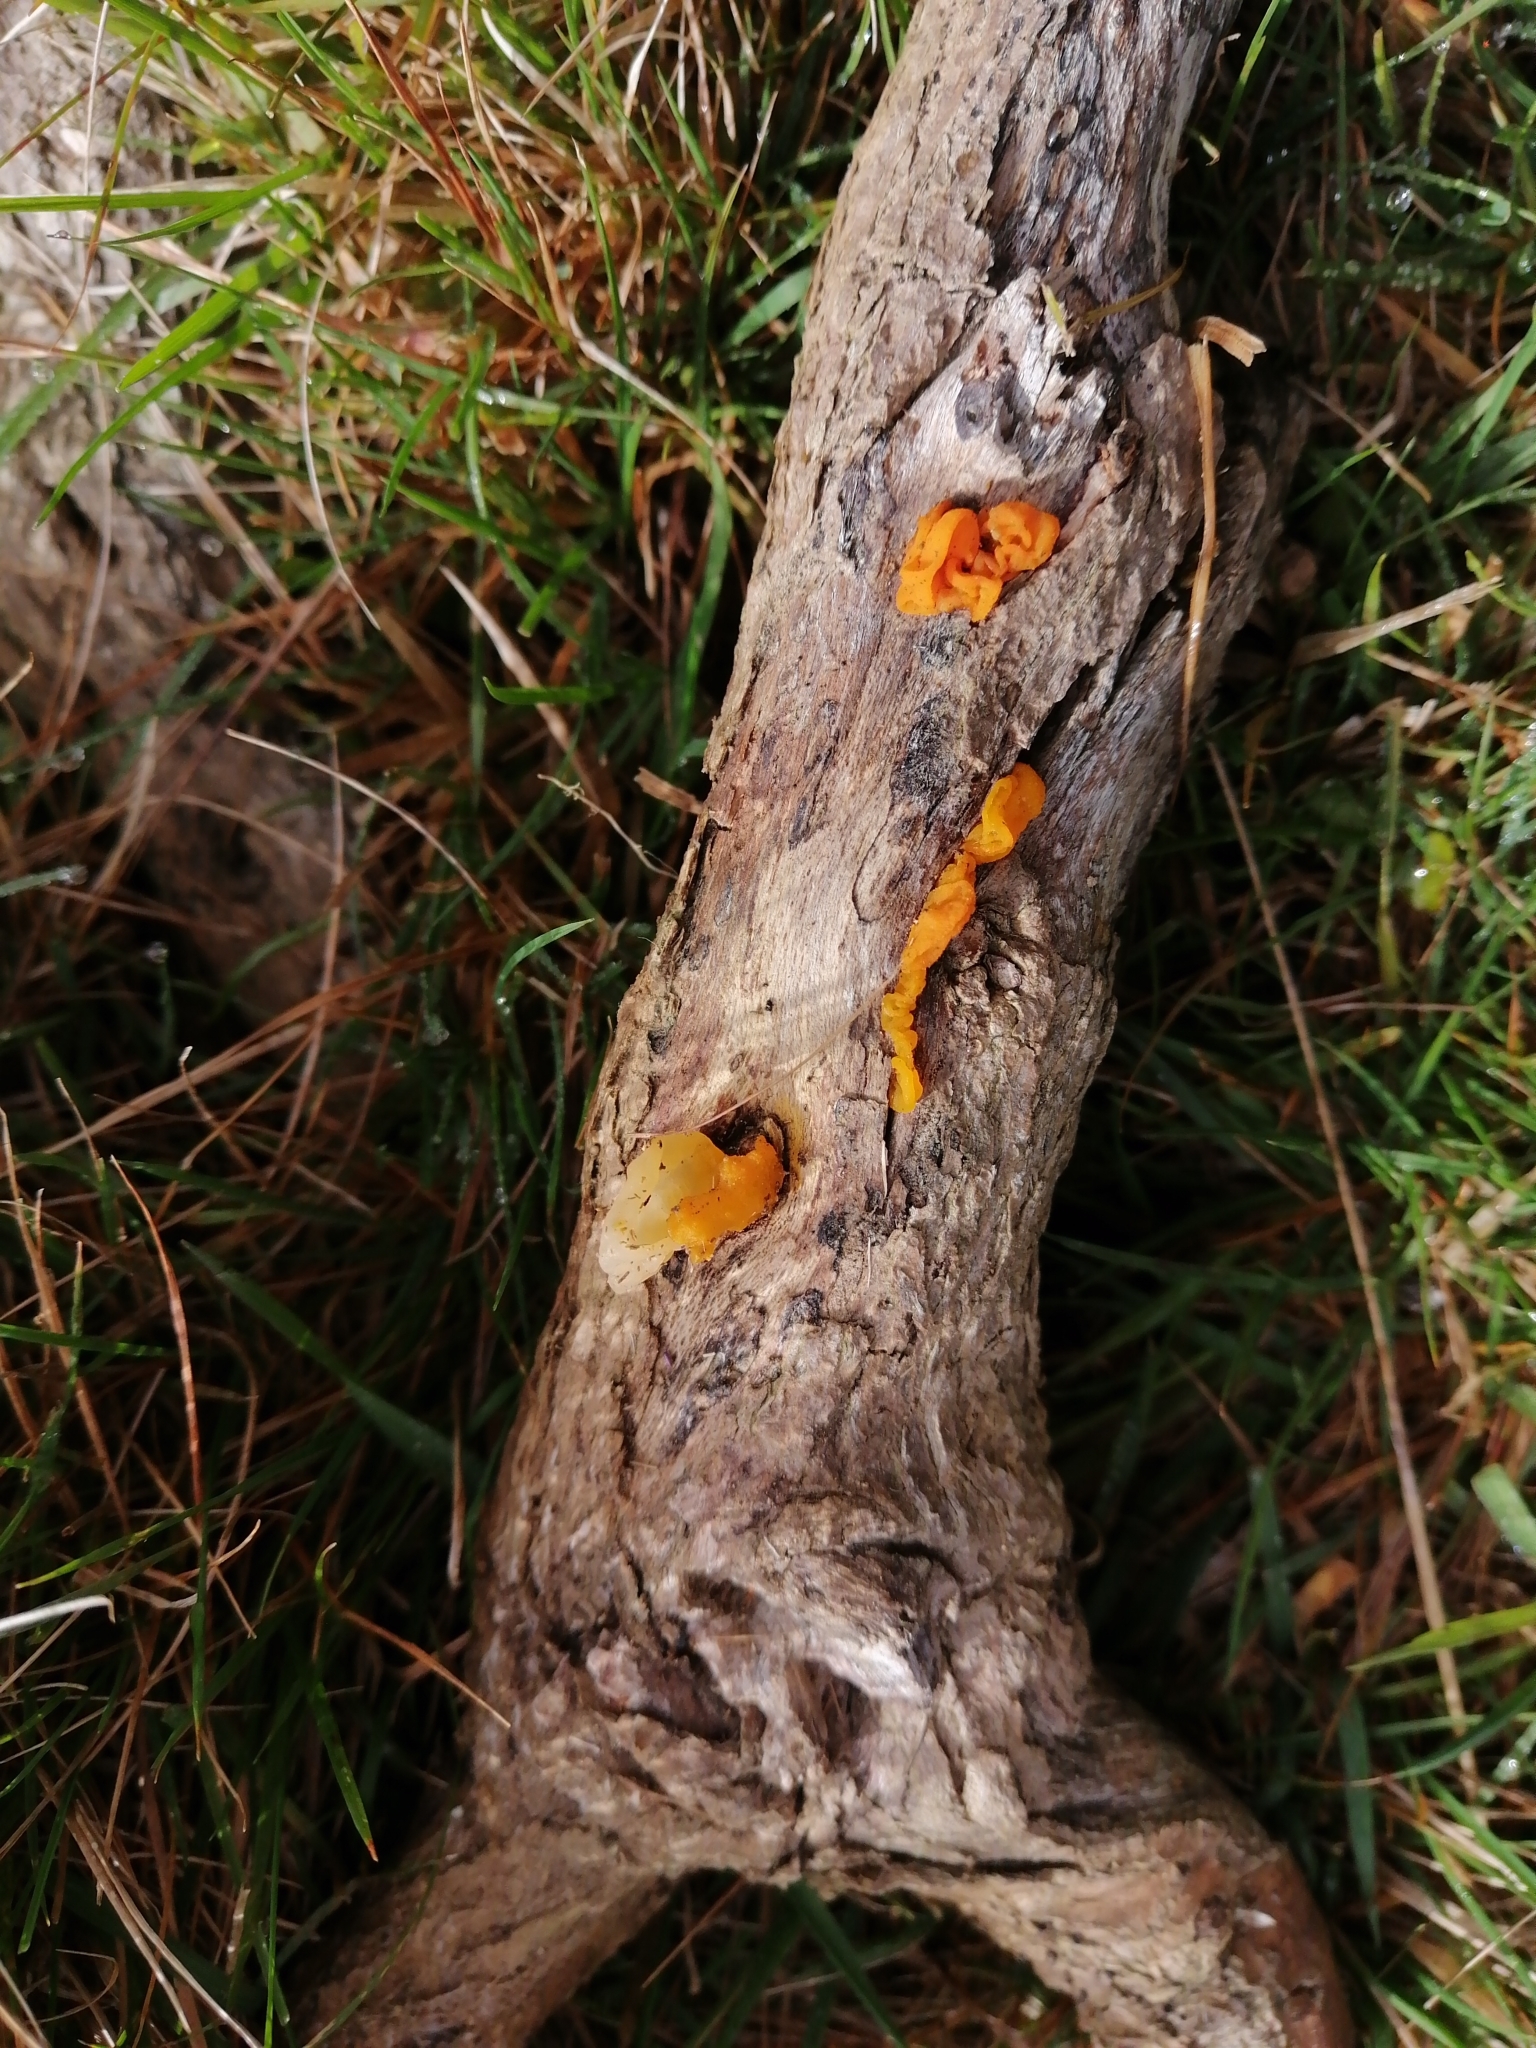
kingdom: Fungi
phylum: Basidiomycota
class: Tremellomycetes
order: Tremellales
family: Tremellaceae
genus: Tremella
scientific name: Tremella mesenterica
